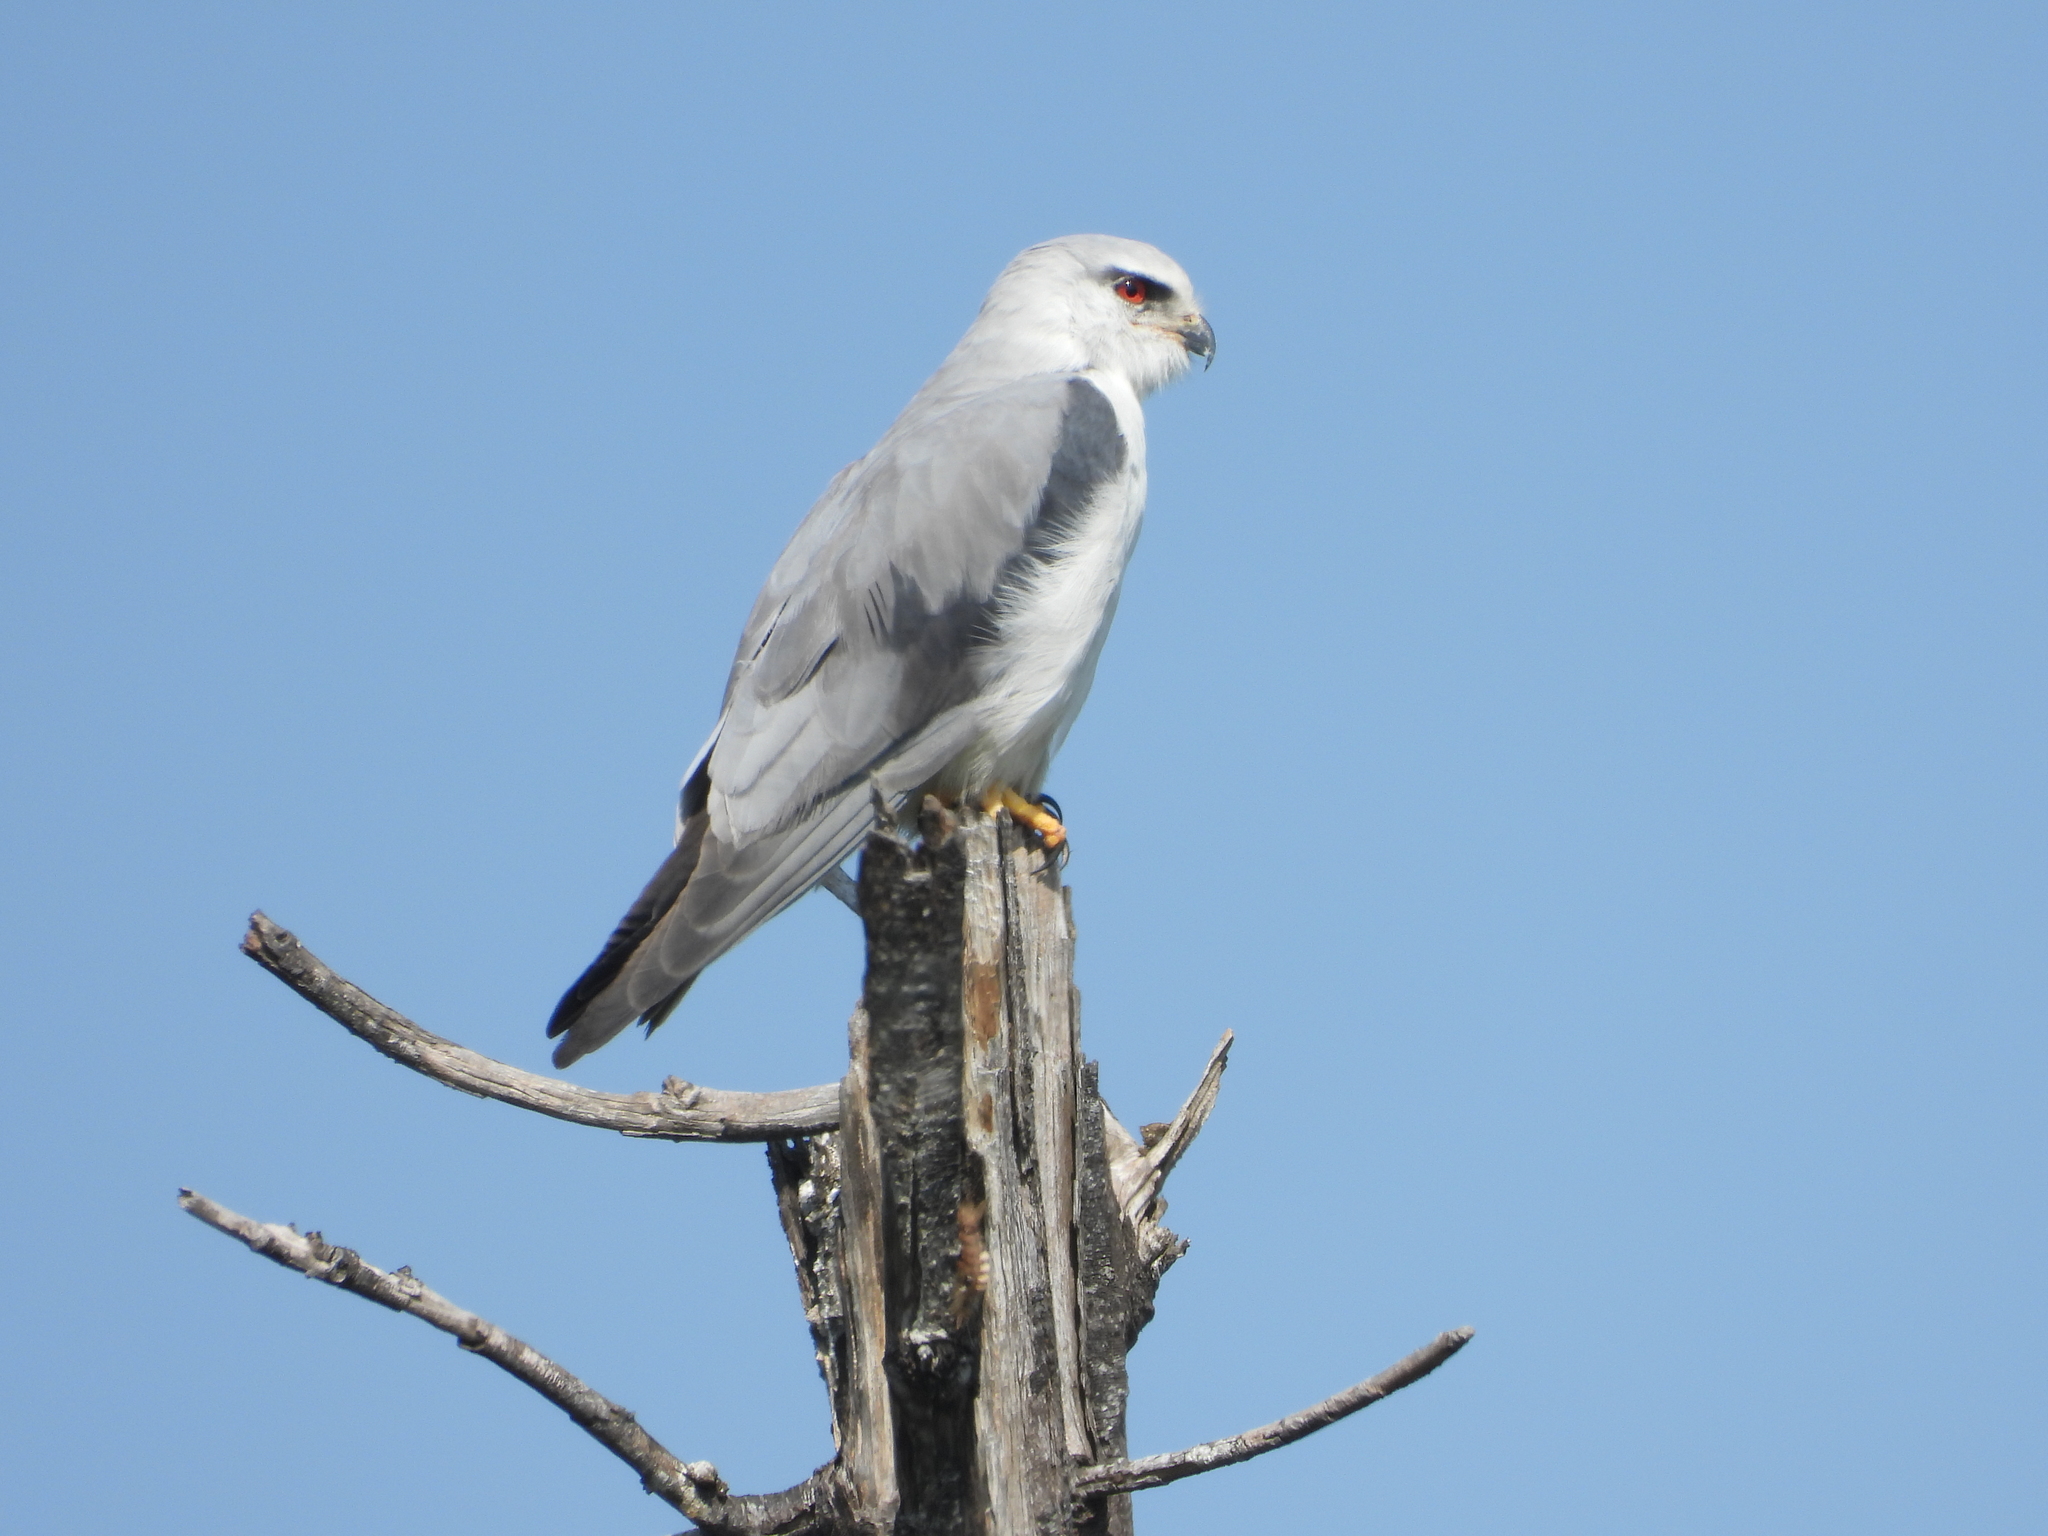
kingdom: Animalia
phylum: Chordata
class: Aves
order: Accipitriformes
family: Accipitridae
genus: Elanus
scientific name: Elanus caeruleus
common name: Black-winged kite
